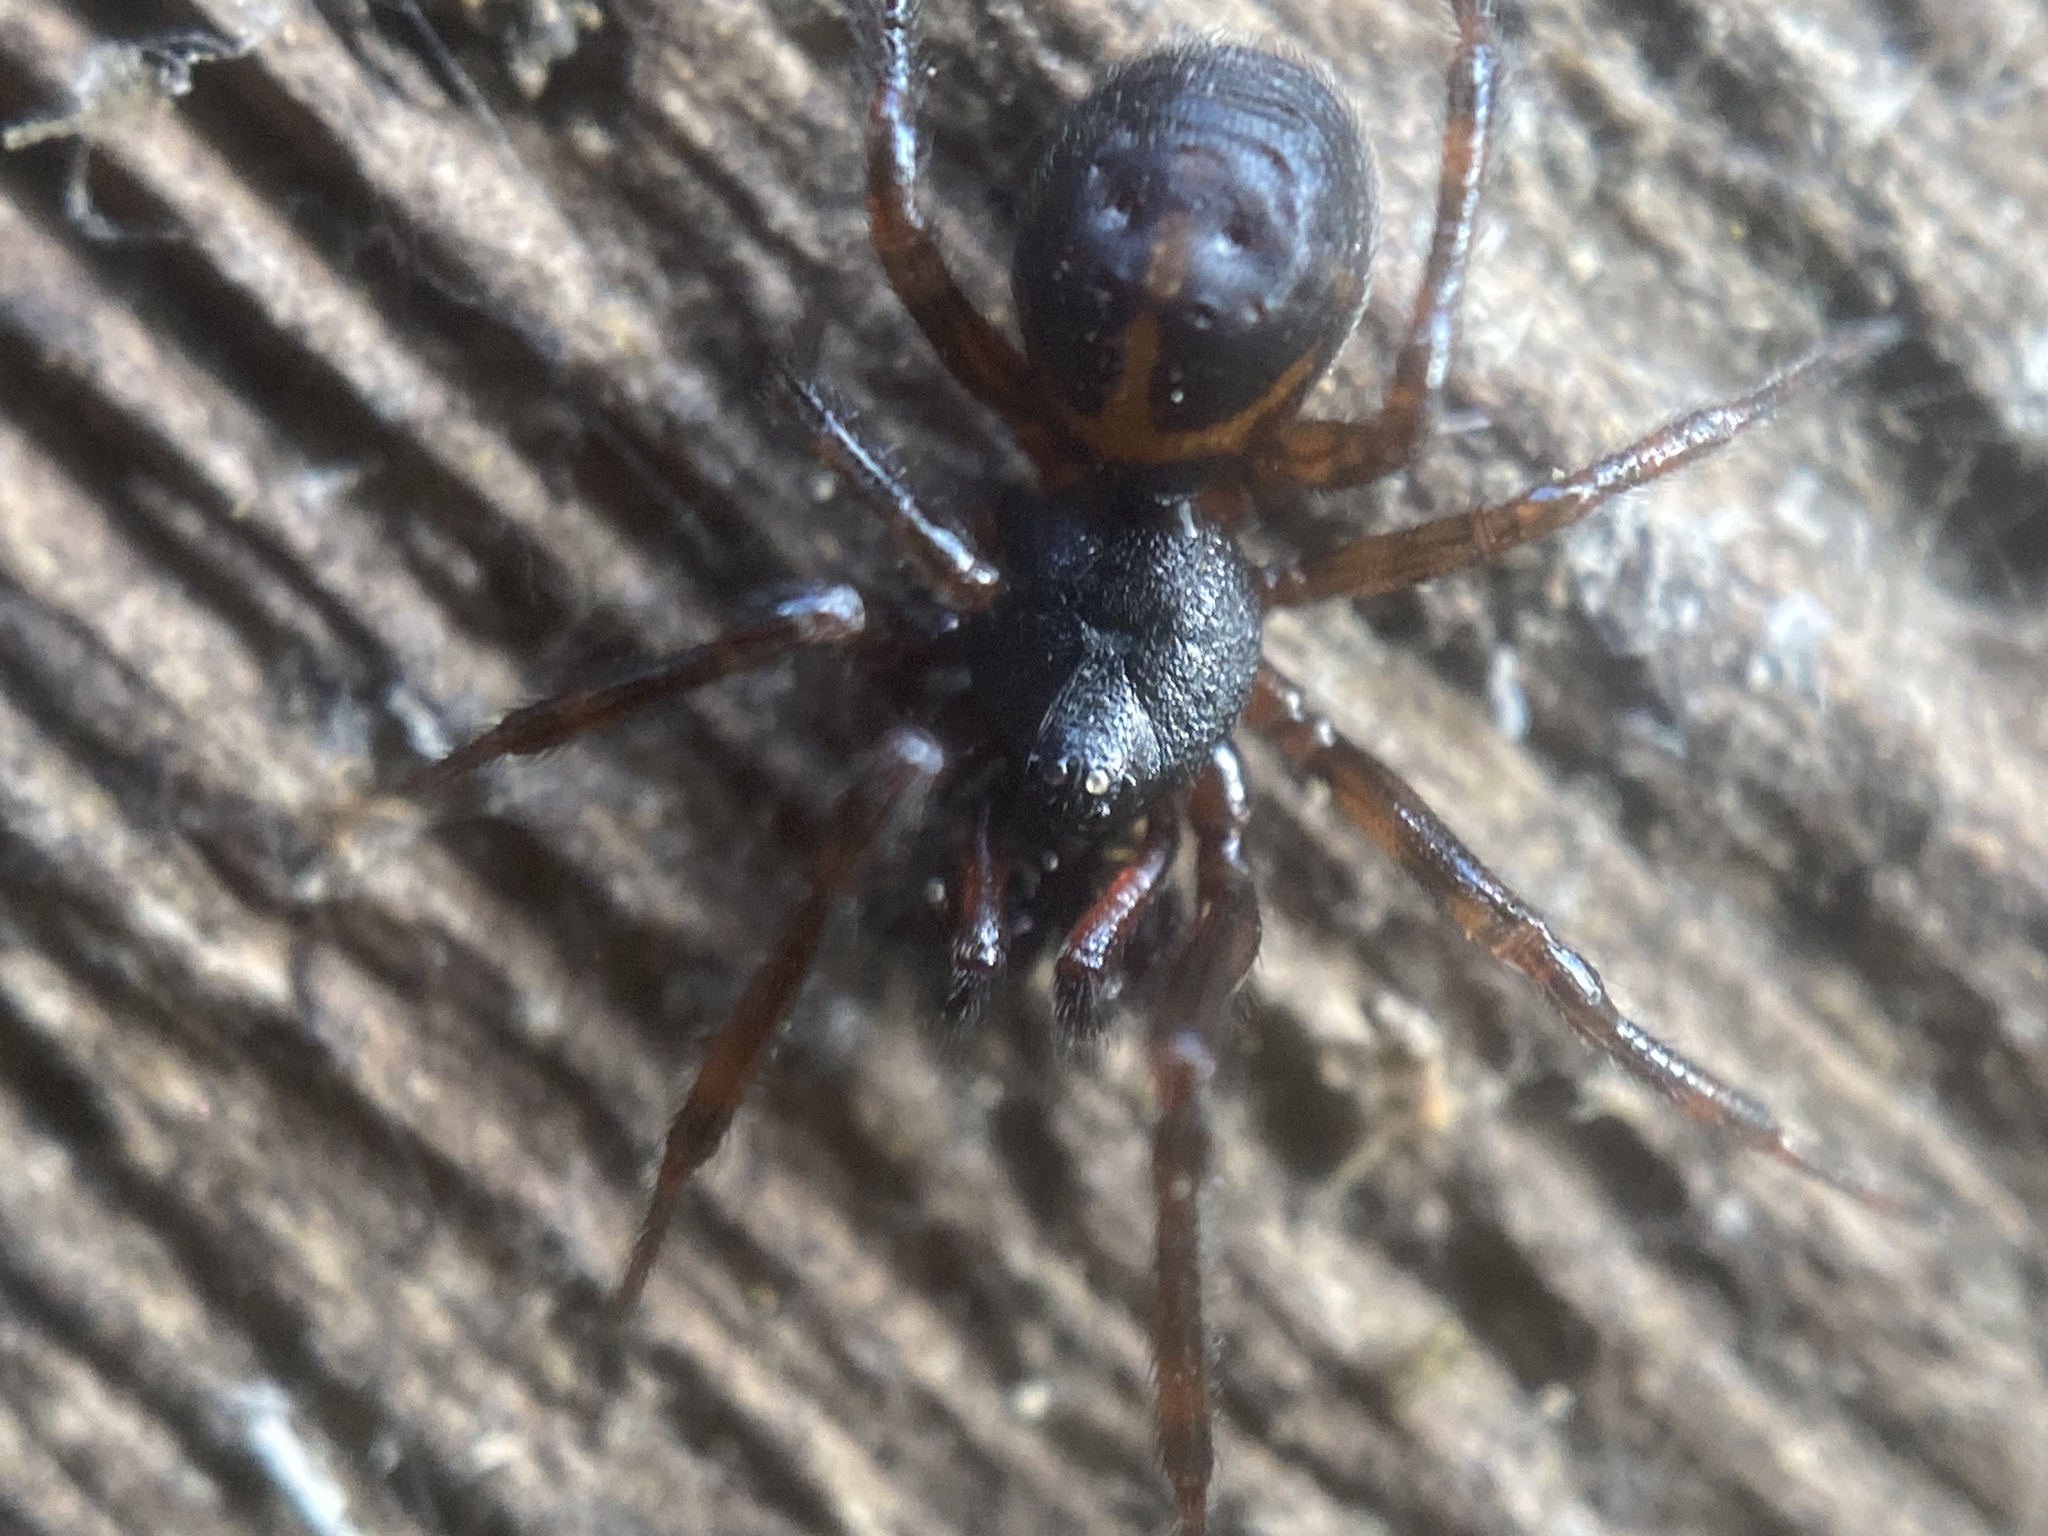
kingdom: Animalia
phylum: Arthropoda
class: Arachnida
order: Araneae
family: Theridiidae
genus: Steatoda
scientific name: Steatoda borealis
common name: Boreal combfoot
